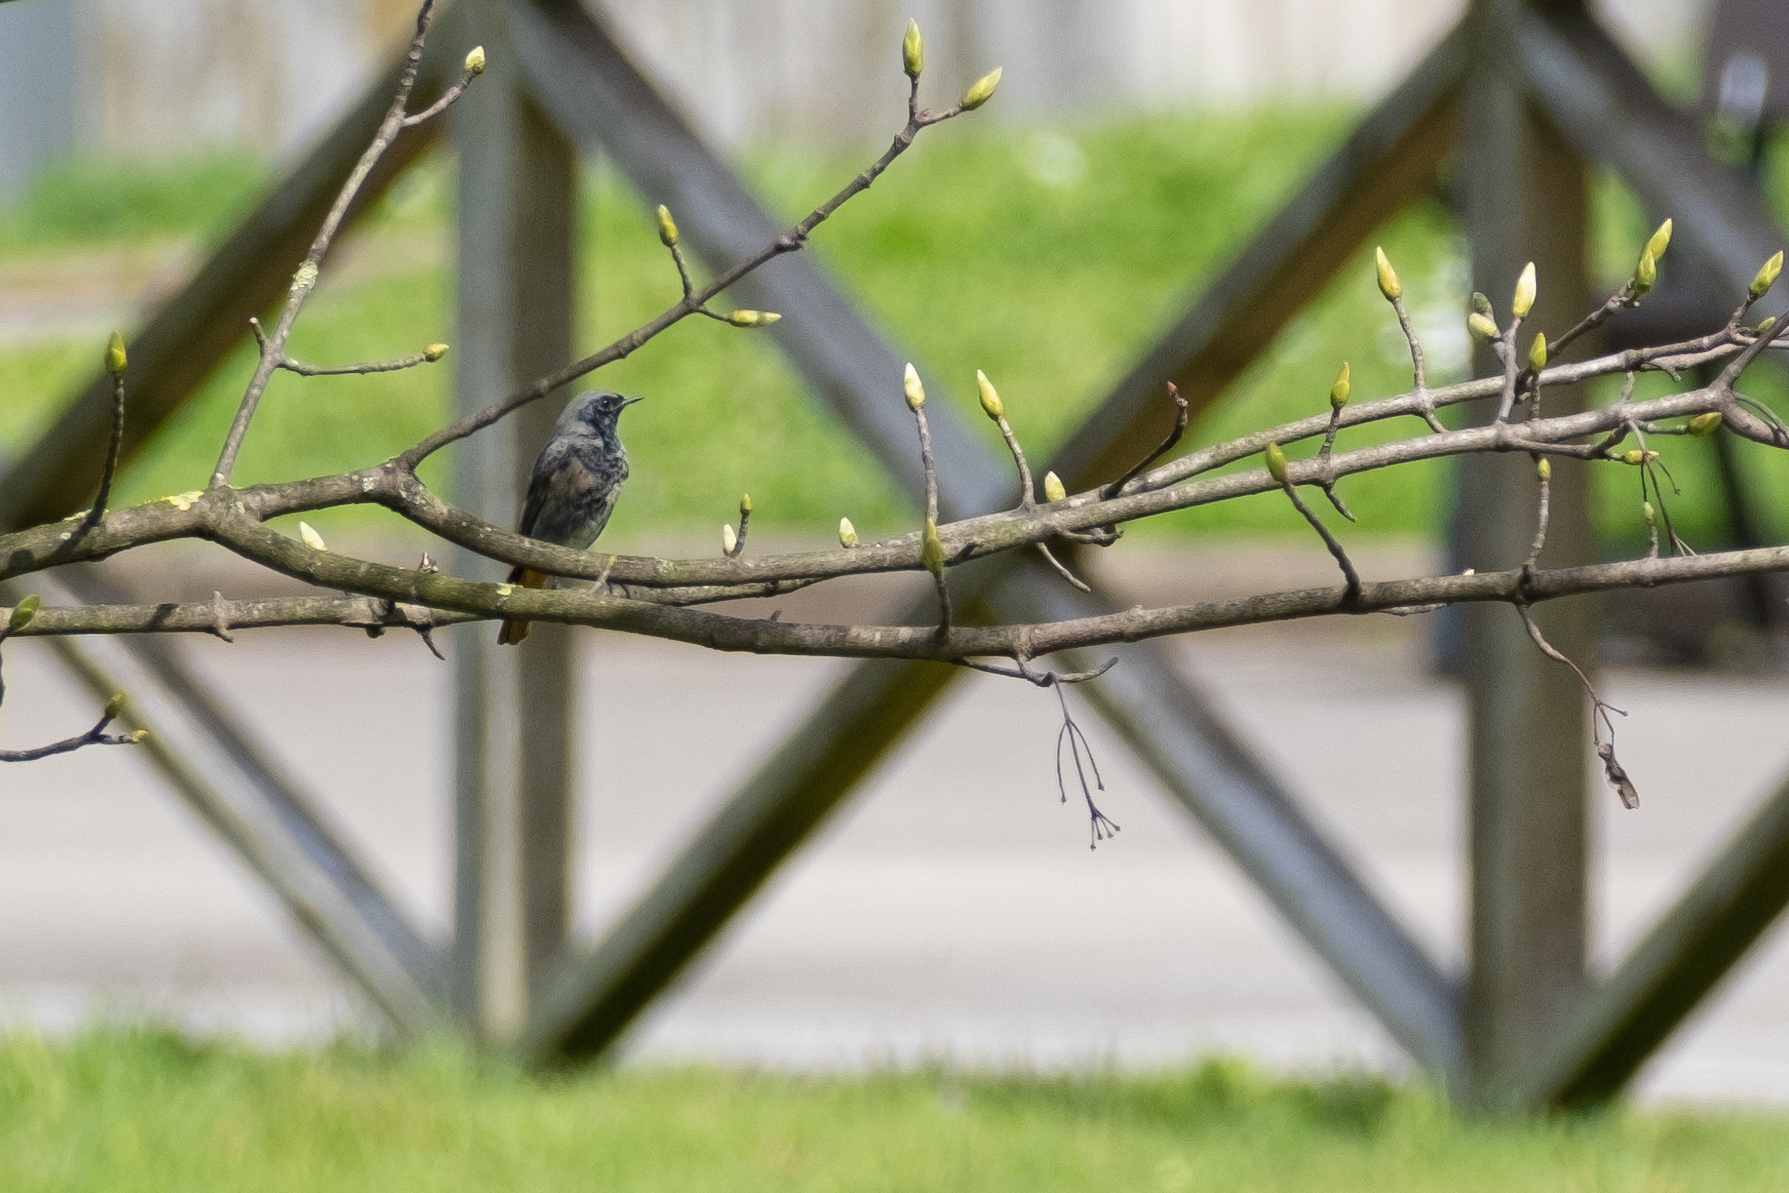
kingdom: Animalia
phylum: Chordata
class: Aves
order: Passeriformes
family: Muscicapidae
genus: Phoenicurus
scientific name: Phoenicurus ochruros
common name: Black redstart
